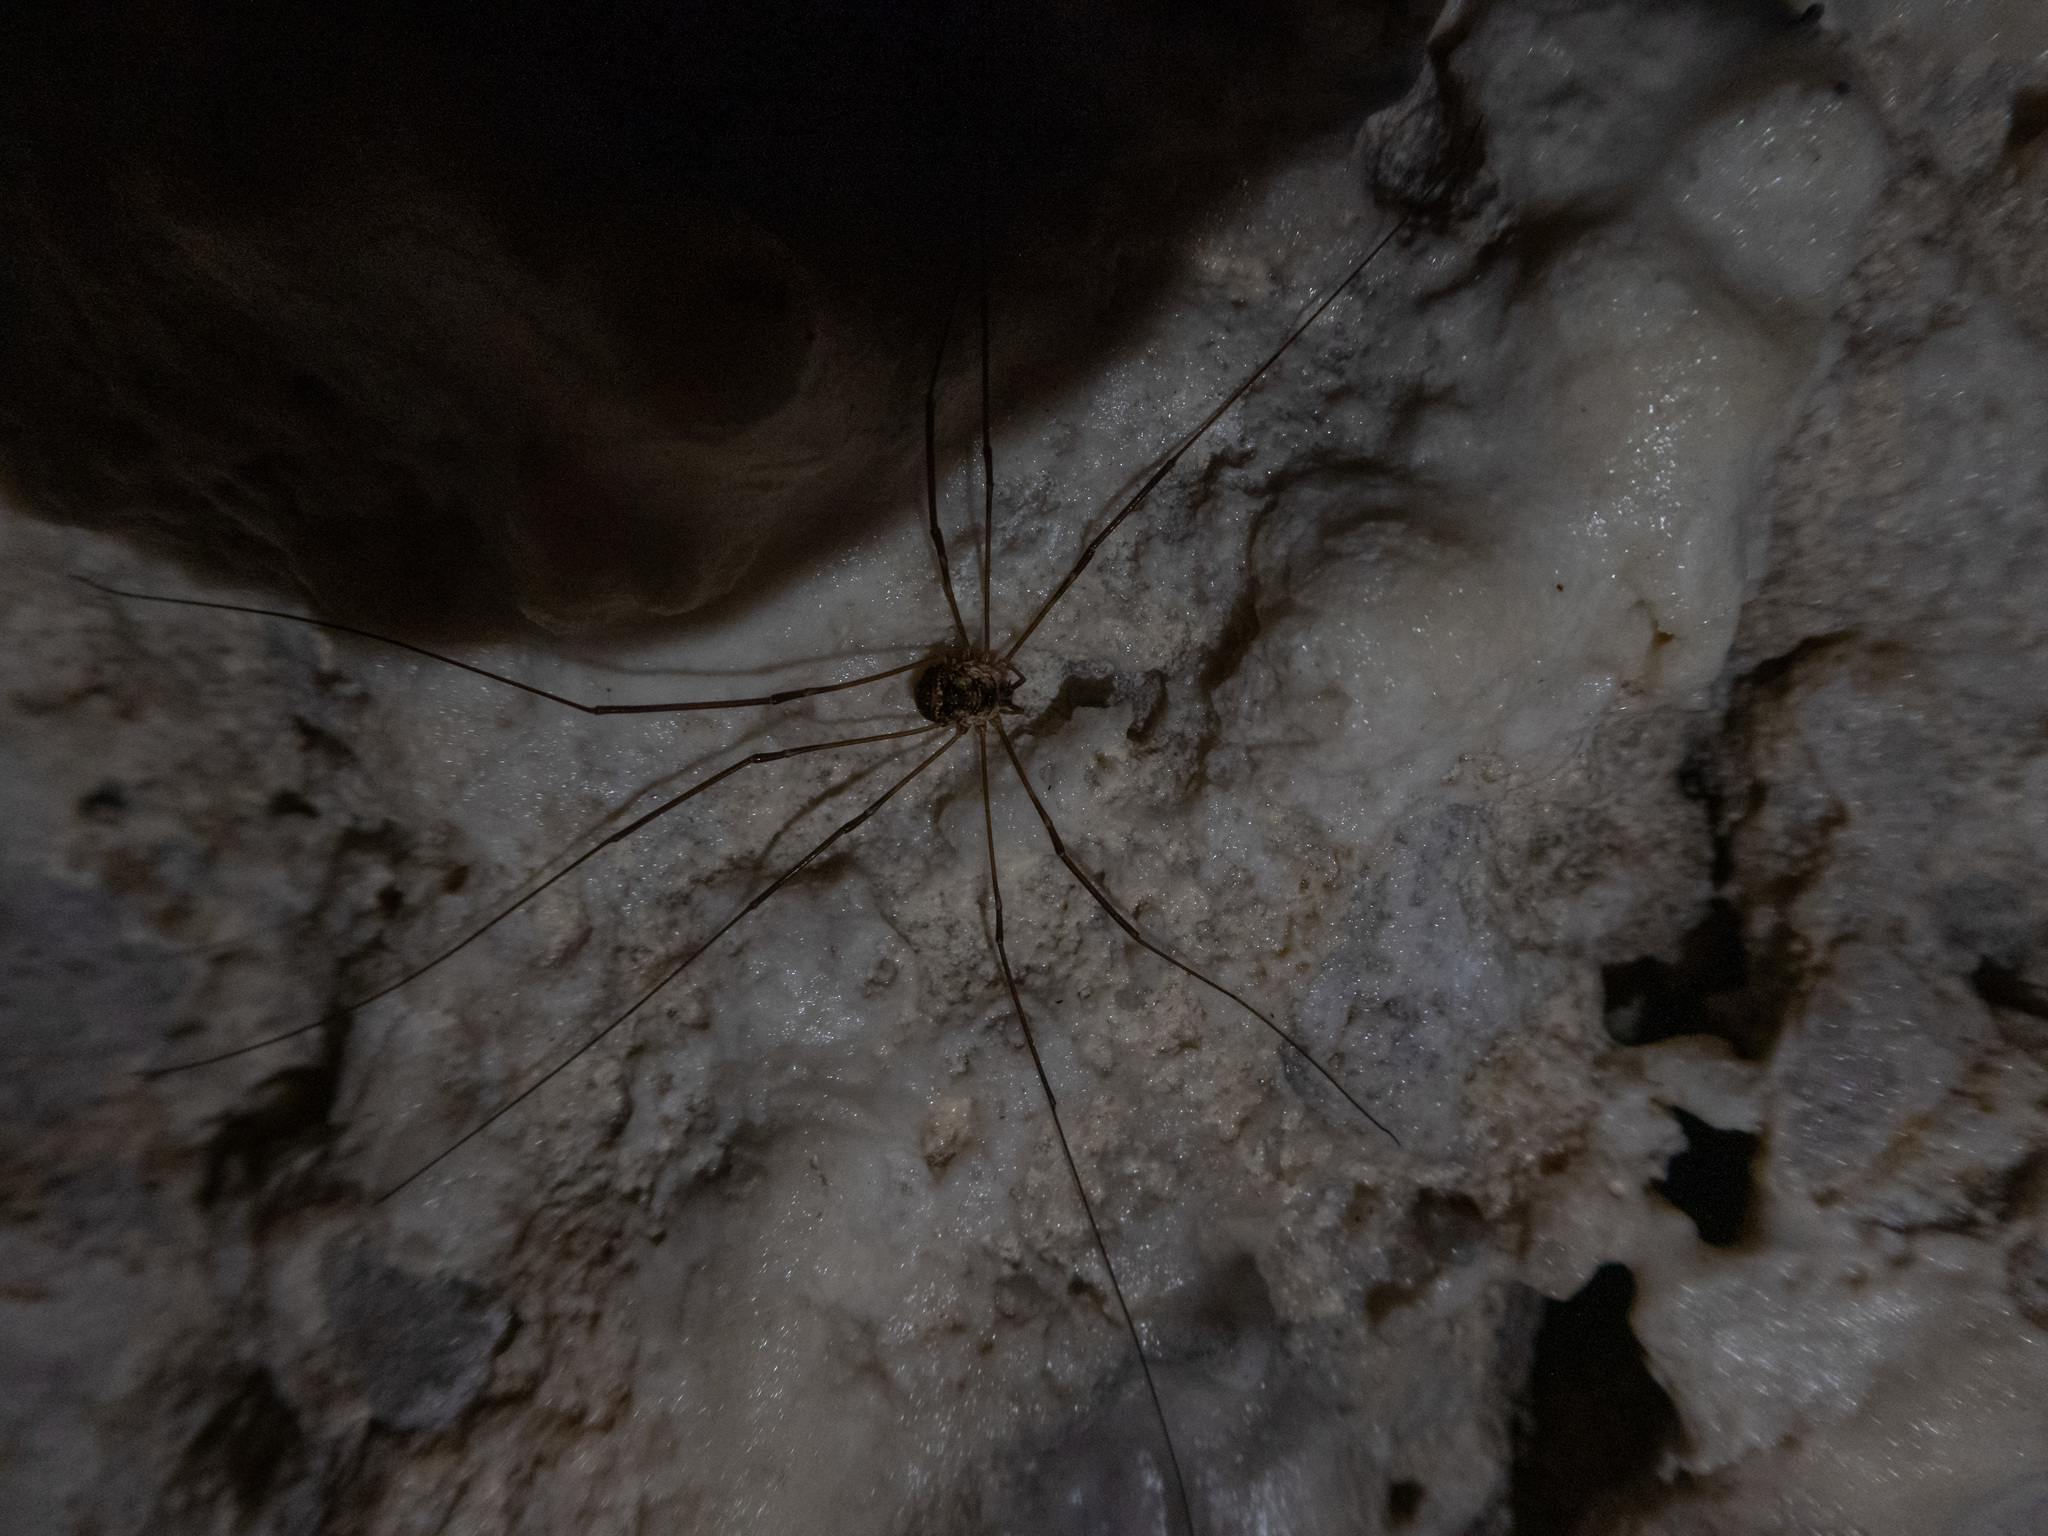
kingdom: Animalia
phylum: Arthropoda
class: Arachnida
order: Opiliones
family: Phalangiidae
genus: Amilenus
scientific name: Amilenus aurantiacus
